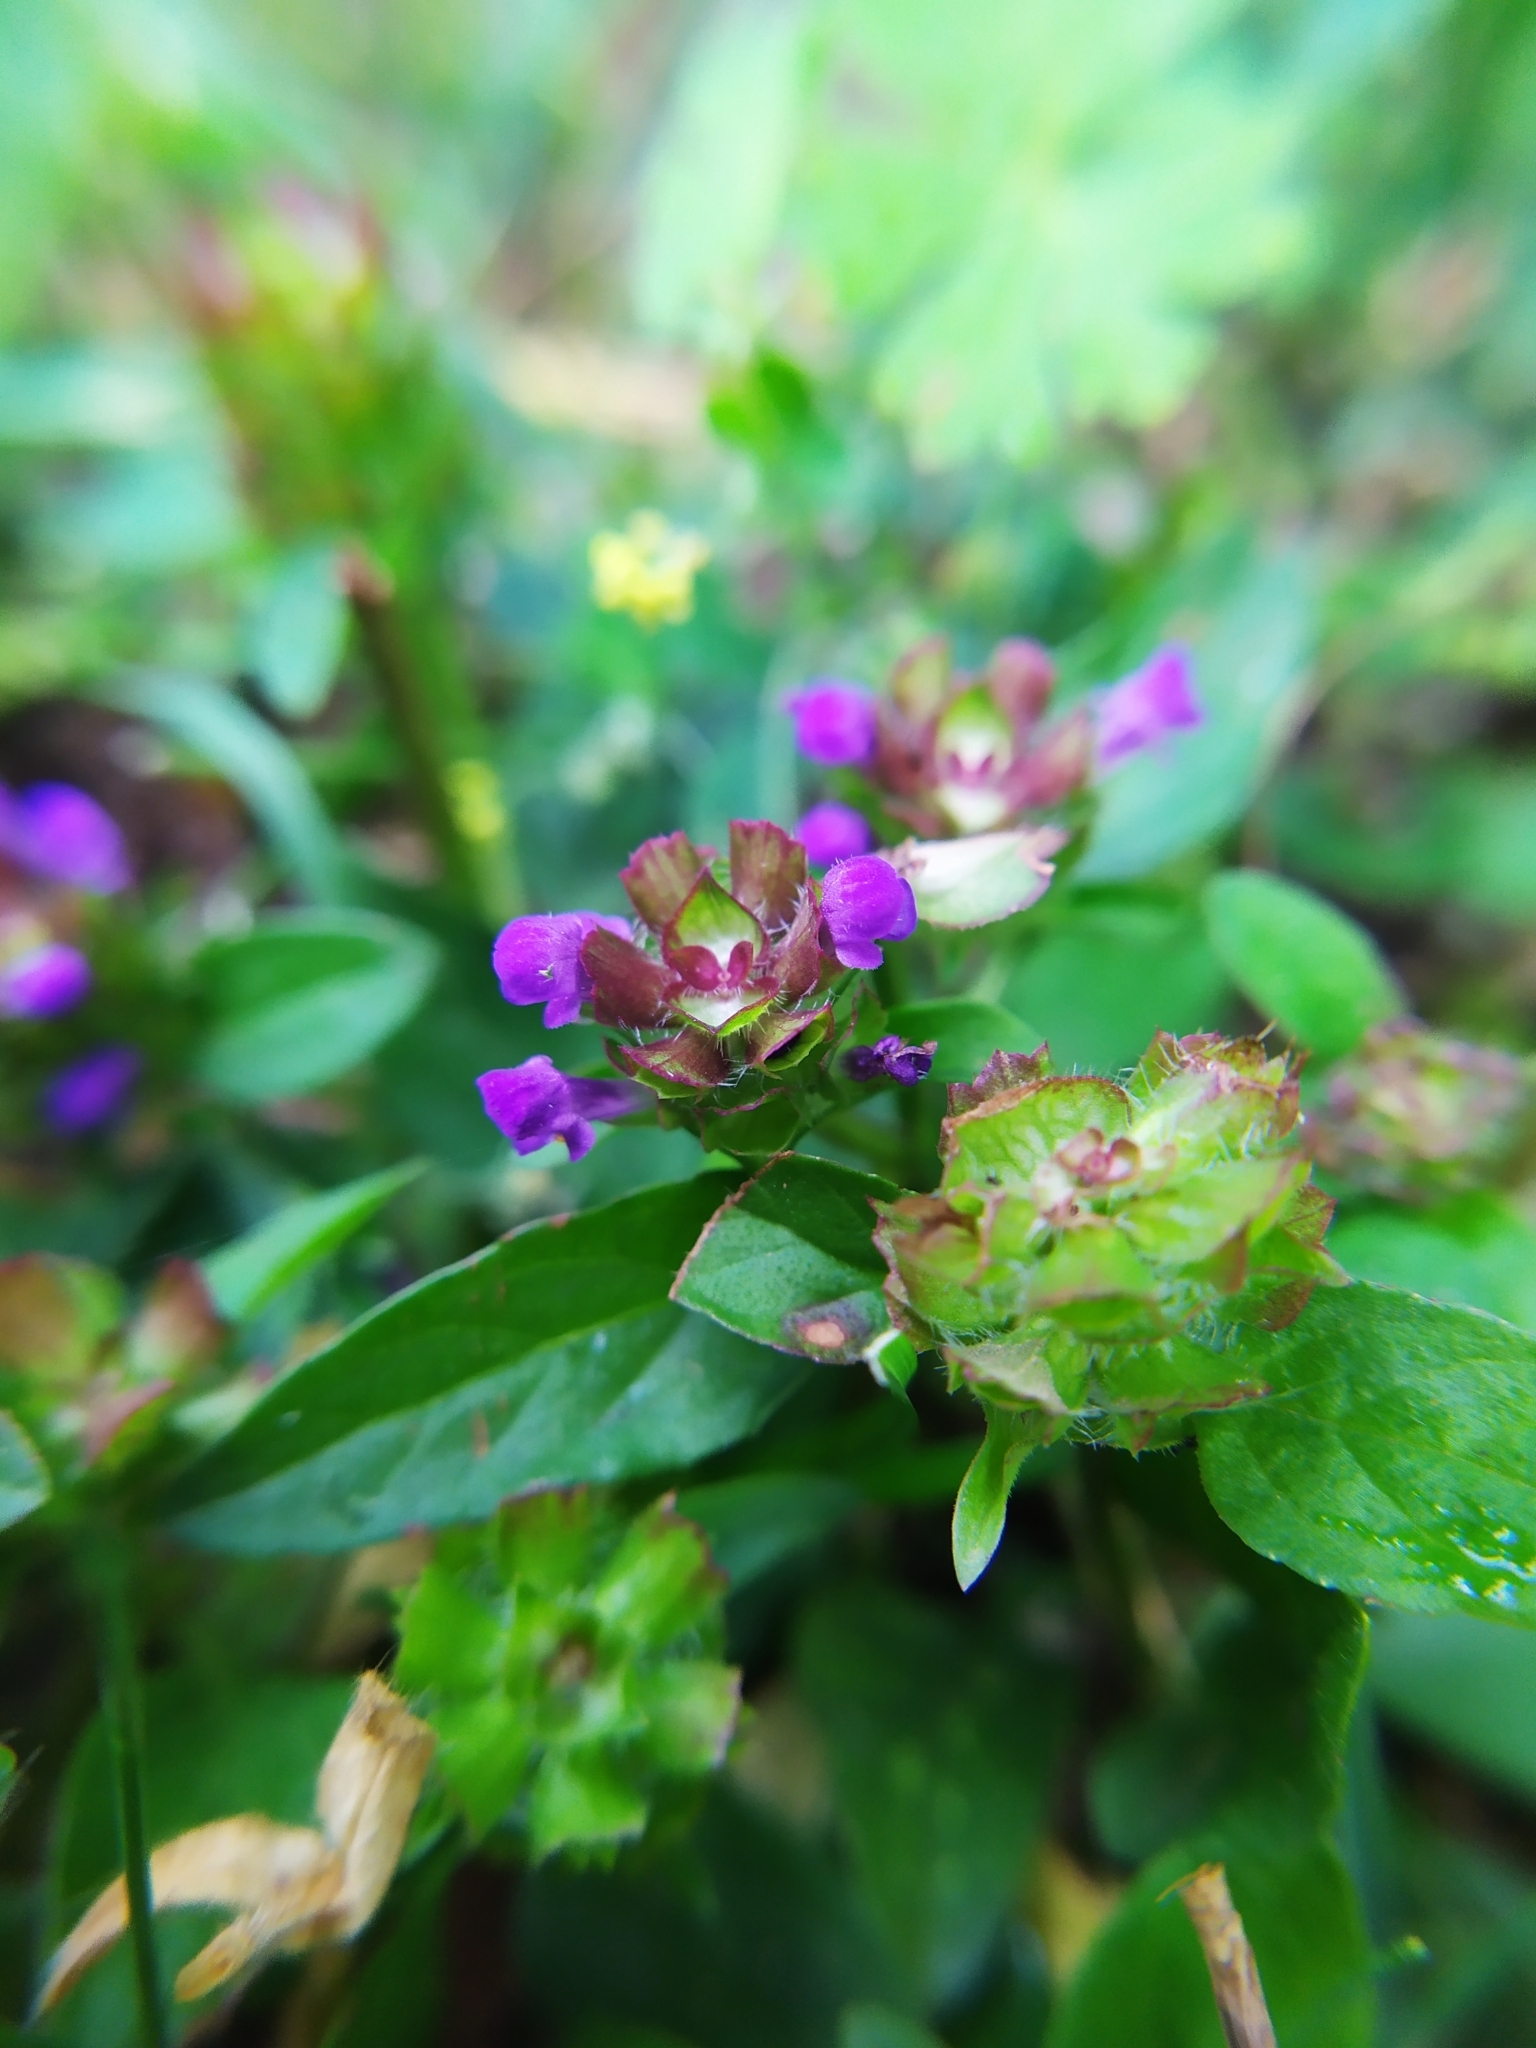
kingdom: Plantae
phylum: Tracheophyta
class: Magnoliopsida
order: Lamiales
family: Lamiaceae
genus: Prunella
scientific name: Prunella vulgaris
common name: Heal-all
